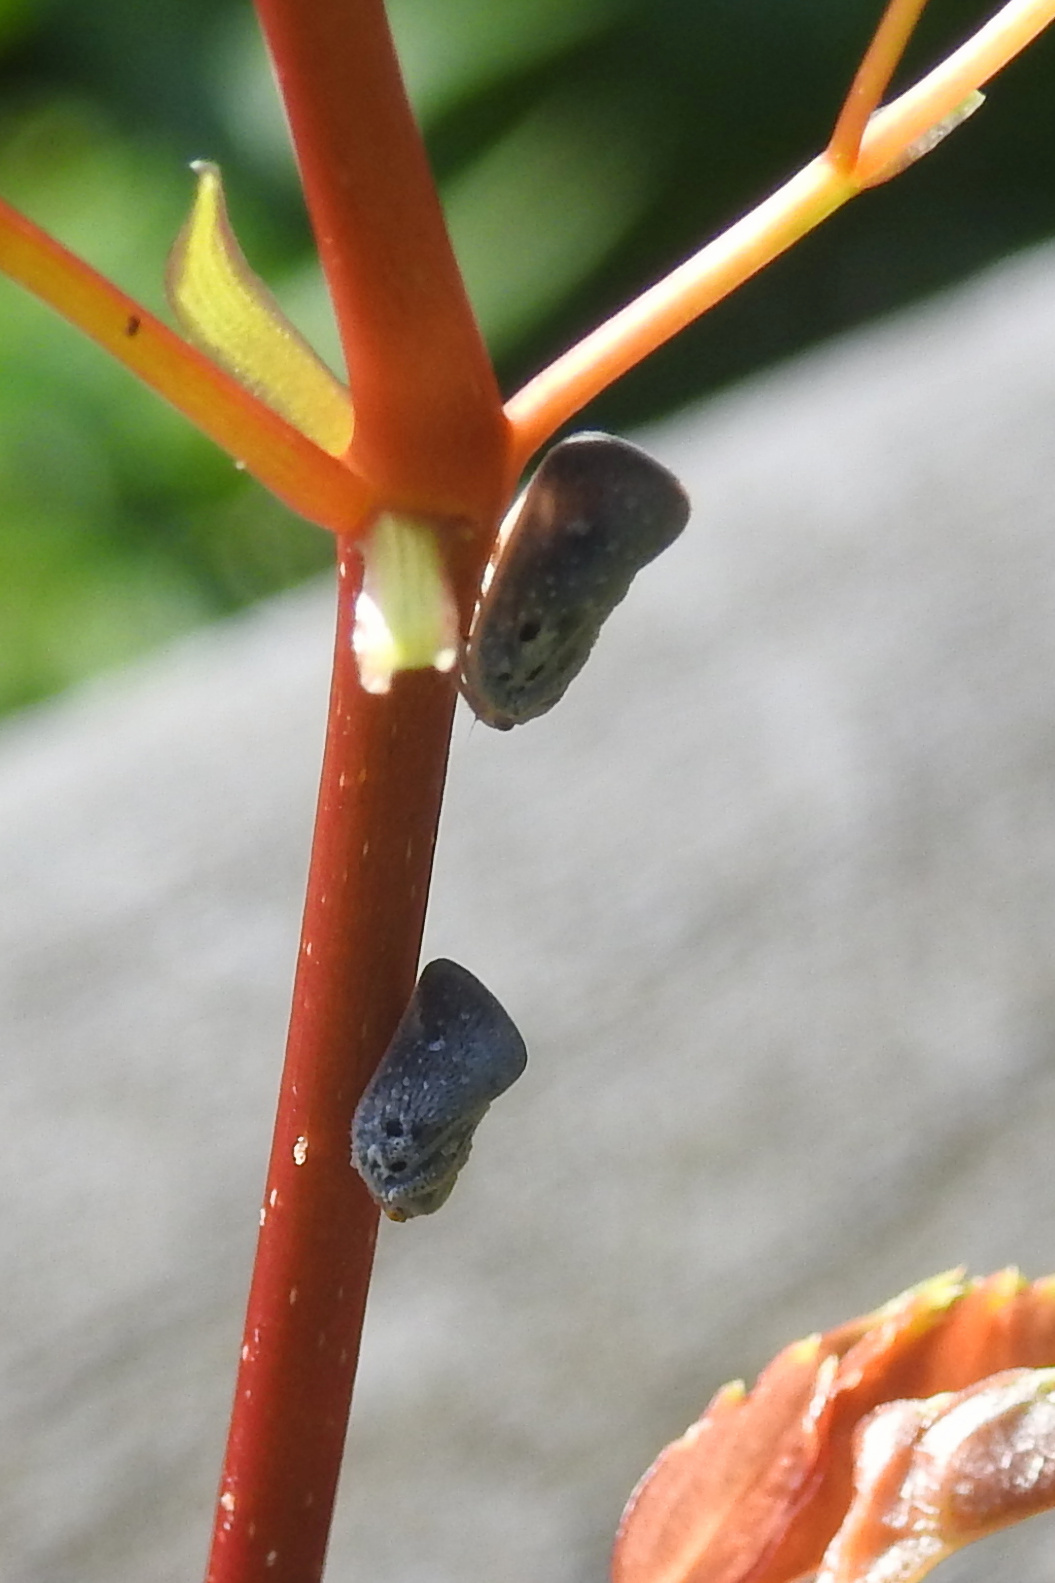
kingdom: Animalia
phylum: Arthropoda
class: Insecta
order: Hemiptera
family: Flatidae
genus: Metcalfa
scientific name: Metcalfa pruinosa
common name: Citrus flatid planthopper
